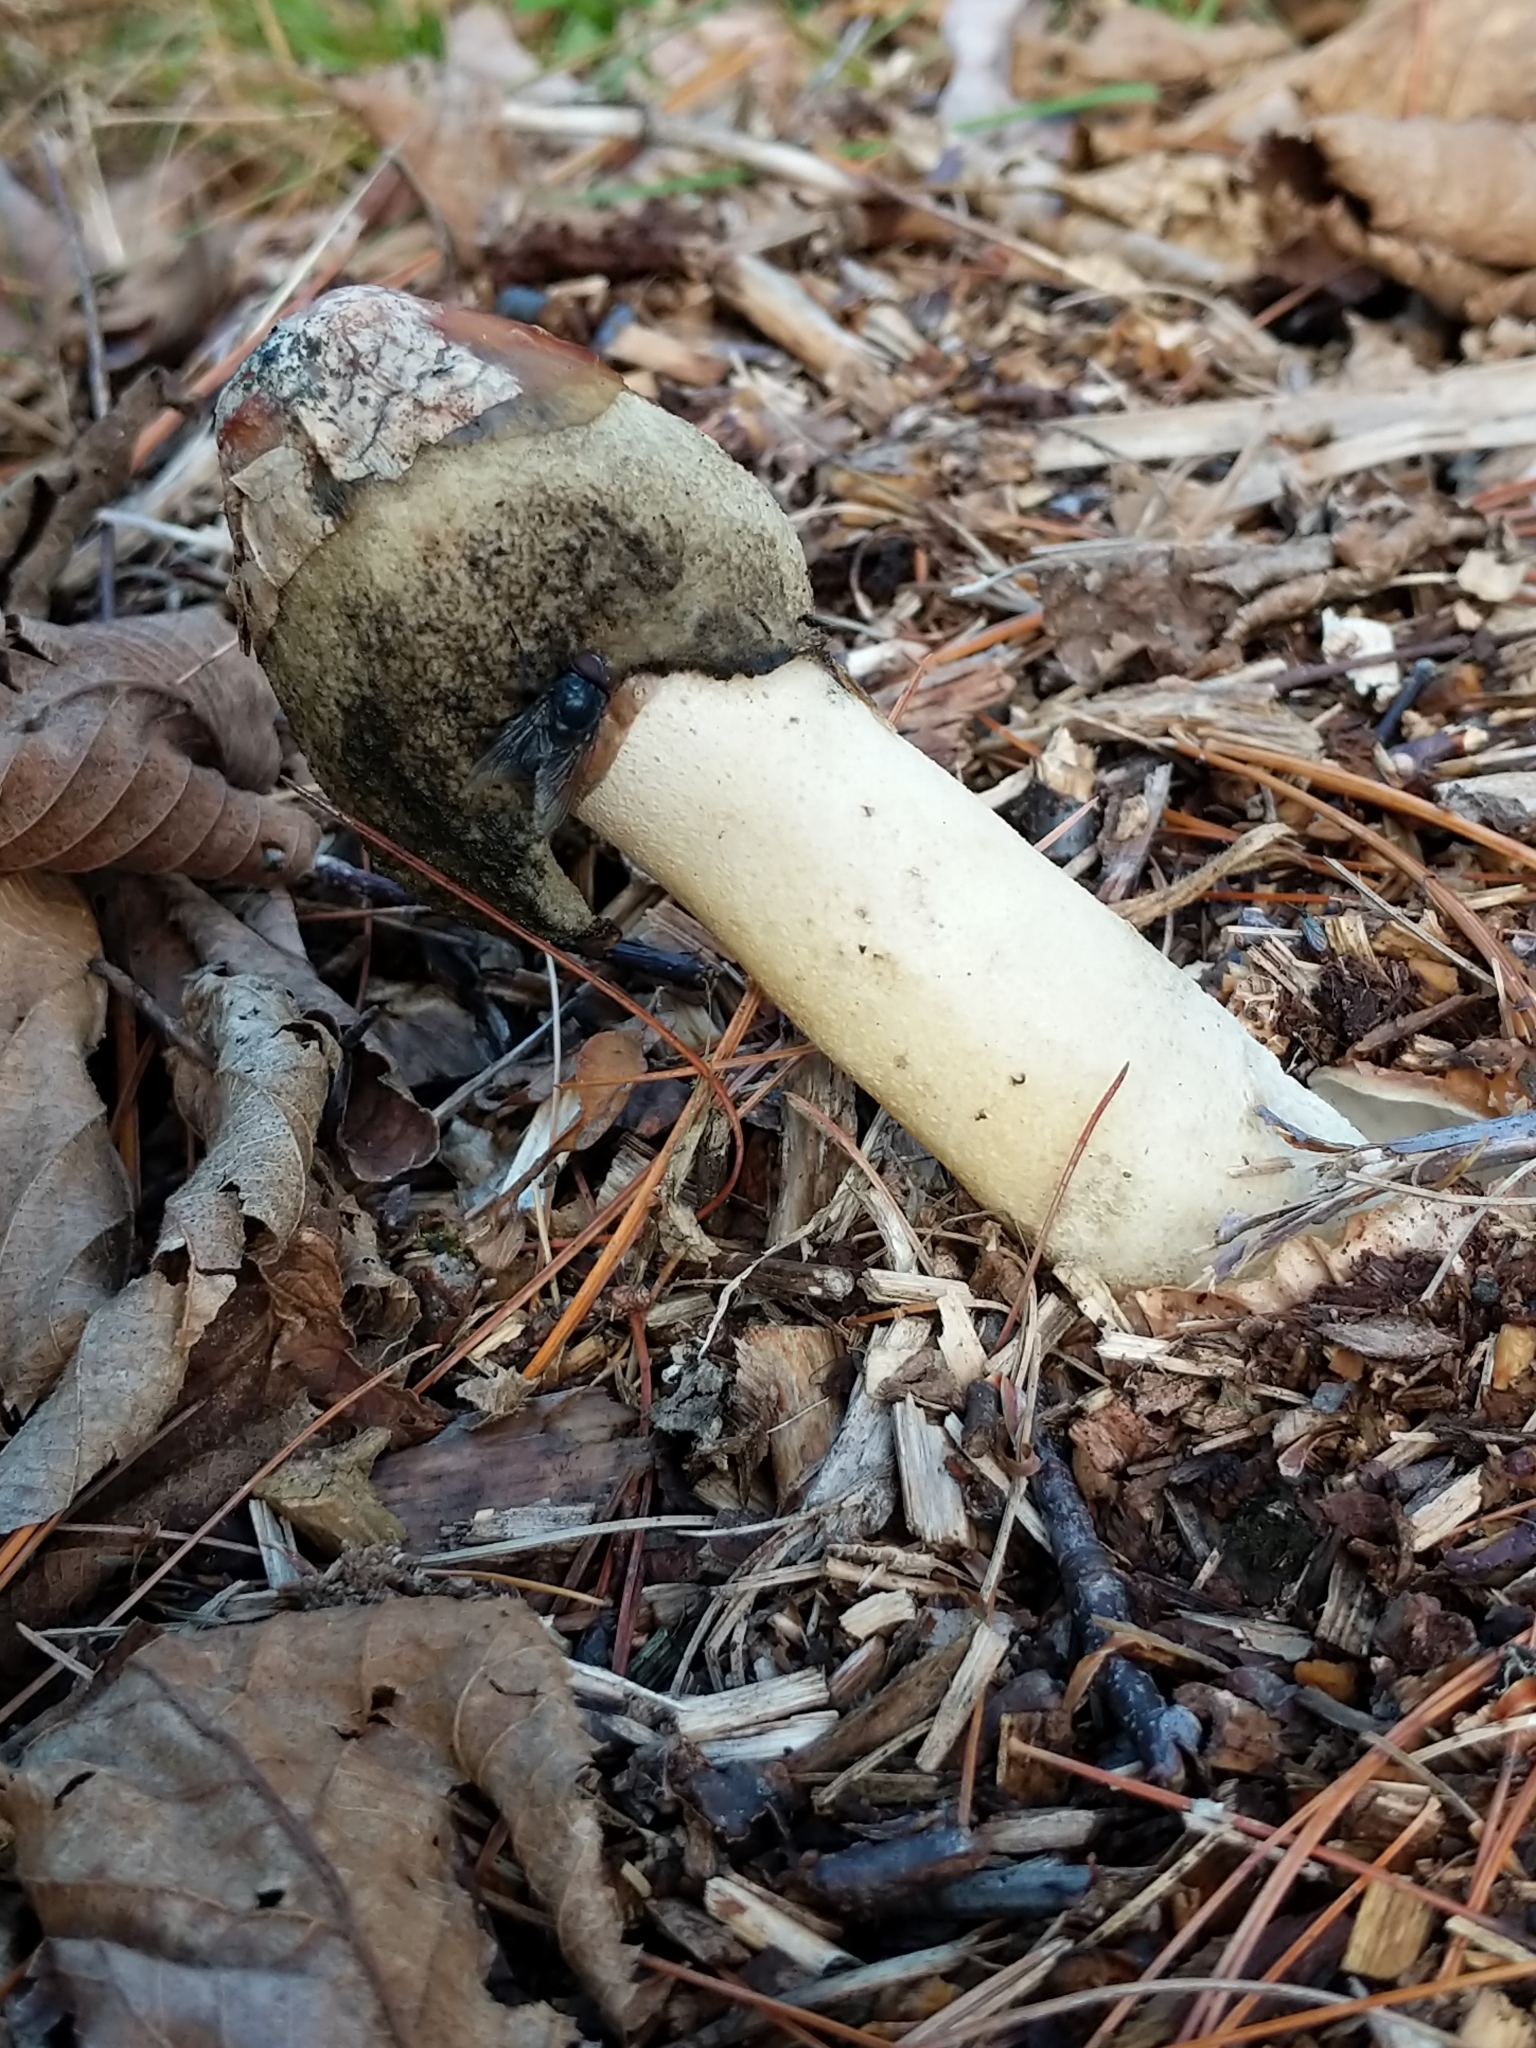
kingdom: Fungi
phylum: Basidiomycota
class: Agaricomycetes
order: Phallales
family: Phallaceae
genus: Phallus
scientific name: Phallus ravenelii
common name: Ravenel's stinkhorn
